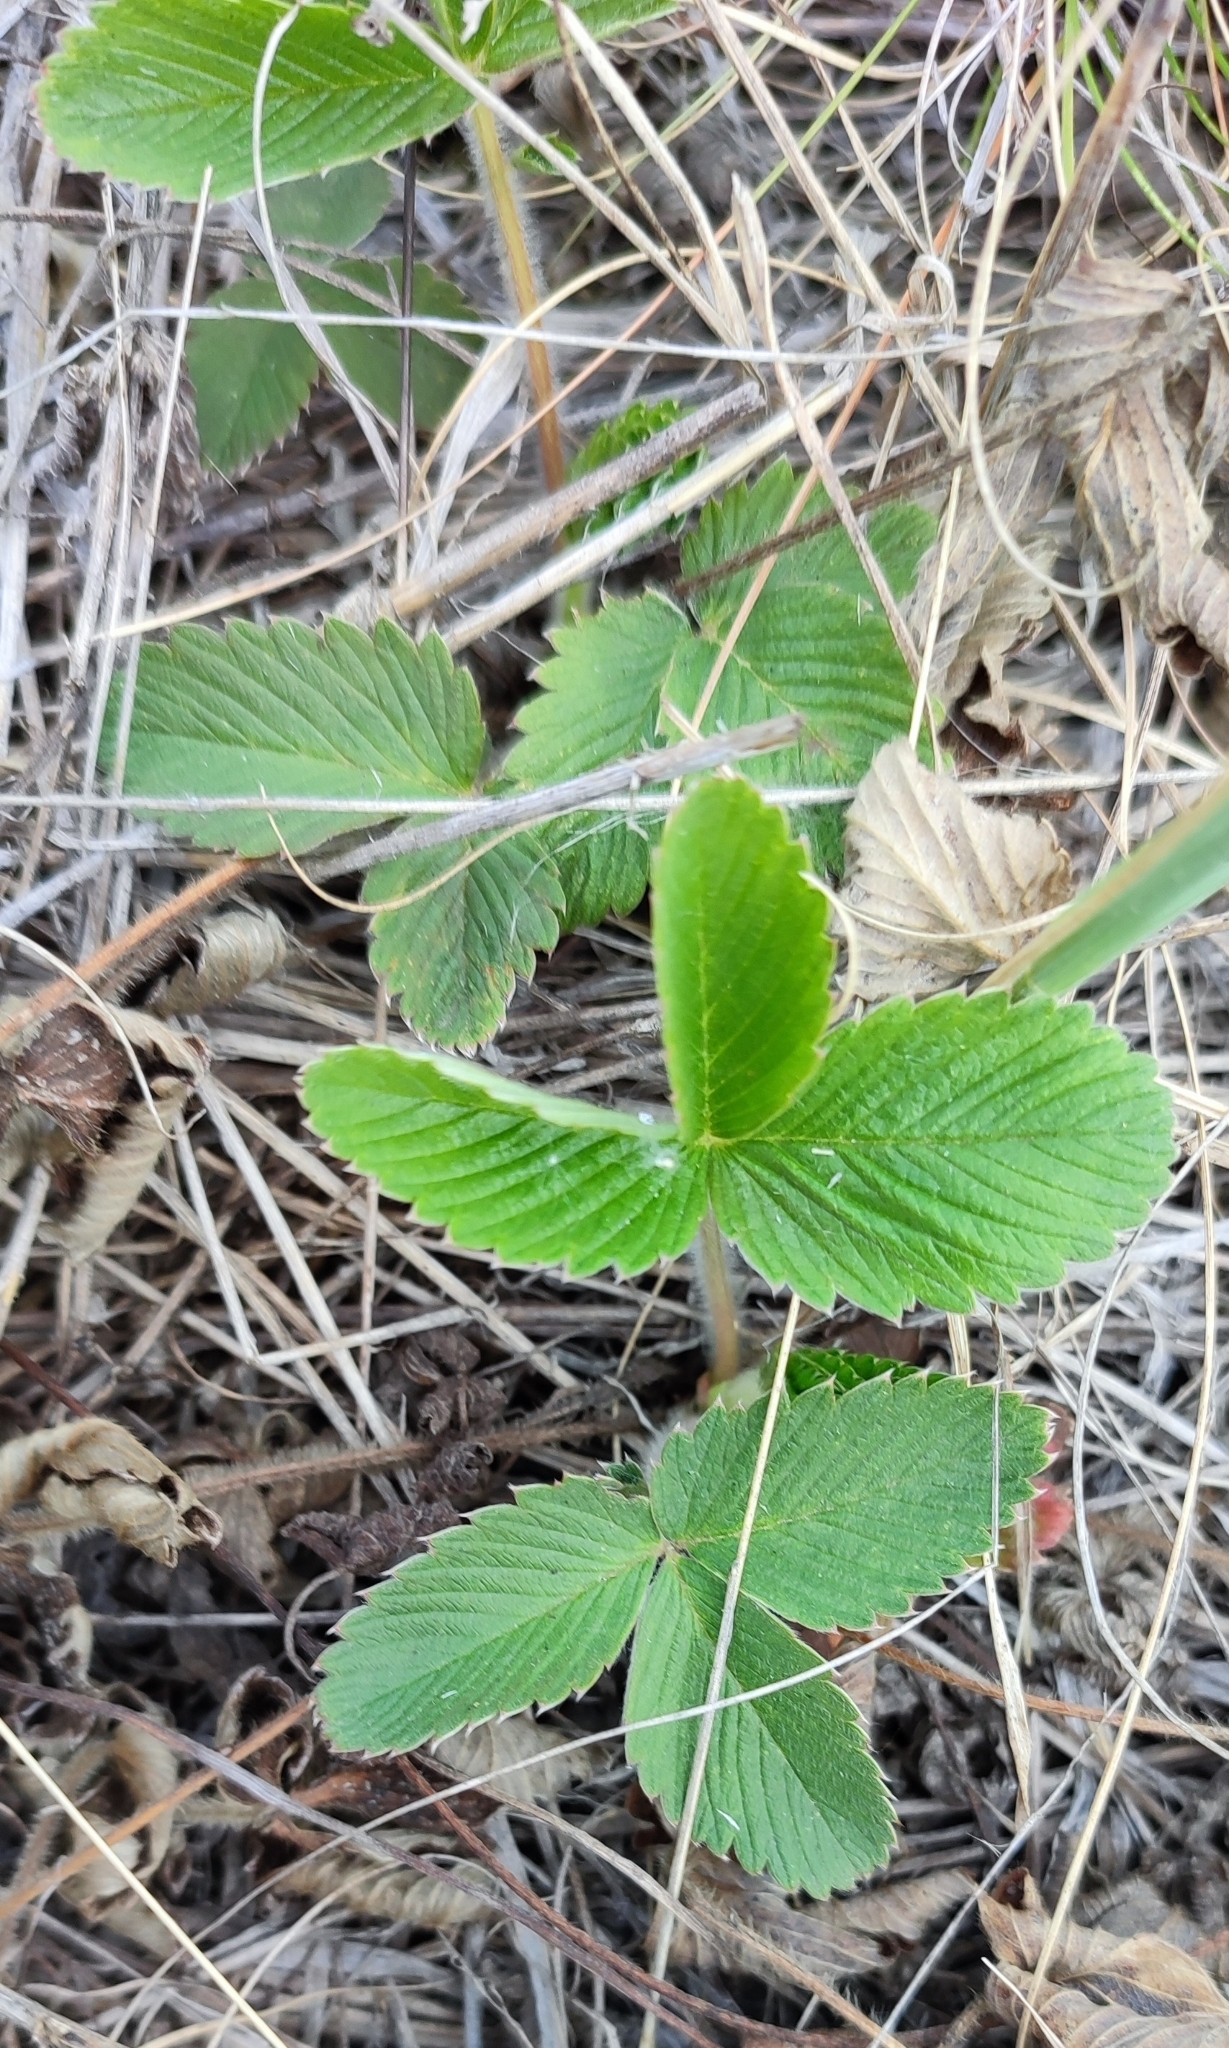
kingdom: Plantae
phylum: Tracheophyta
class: Magnoliopsida
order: Rosales
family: Rosaceae
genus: Fragaria
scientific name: Fragaria viridis
